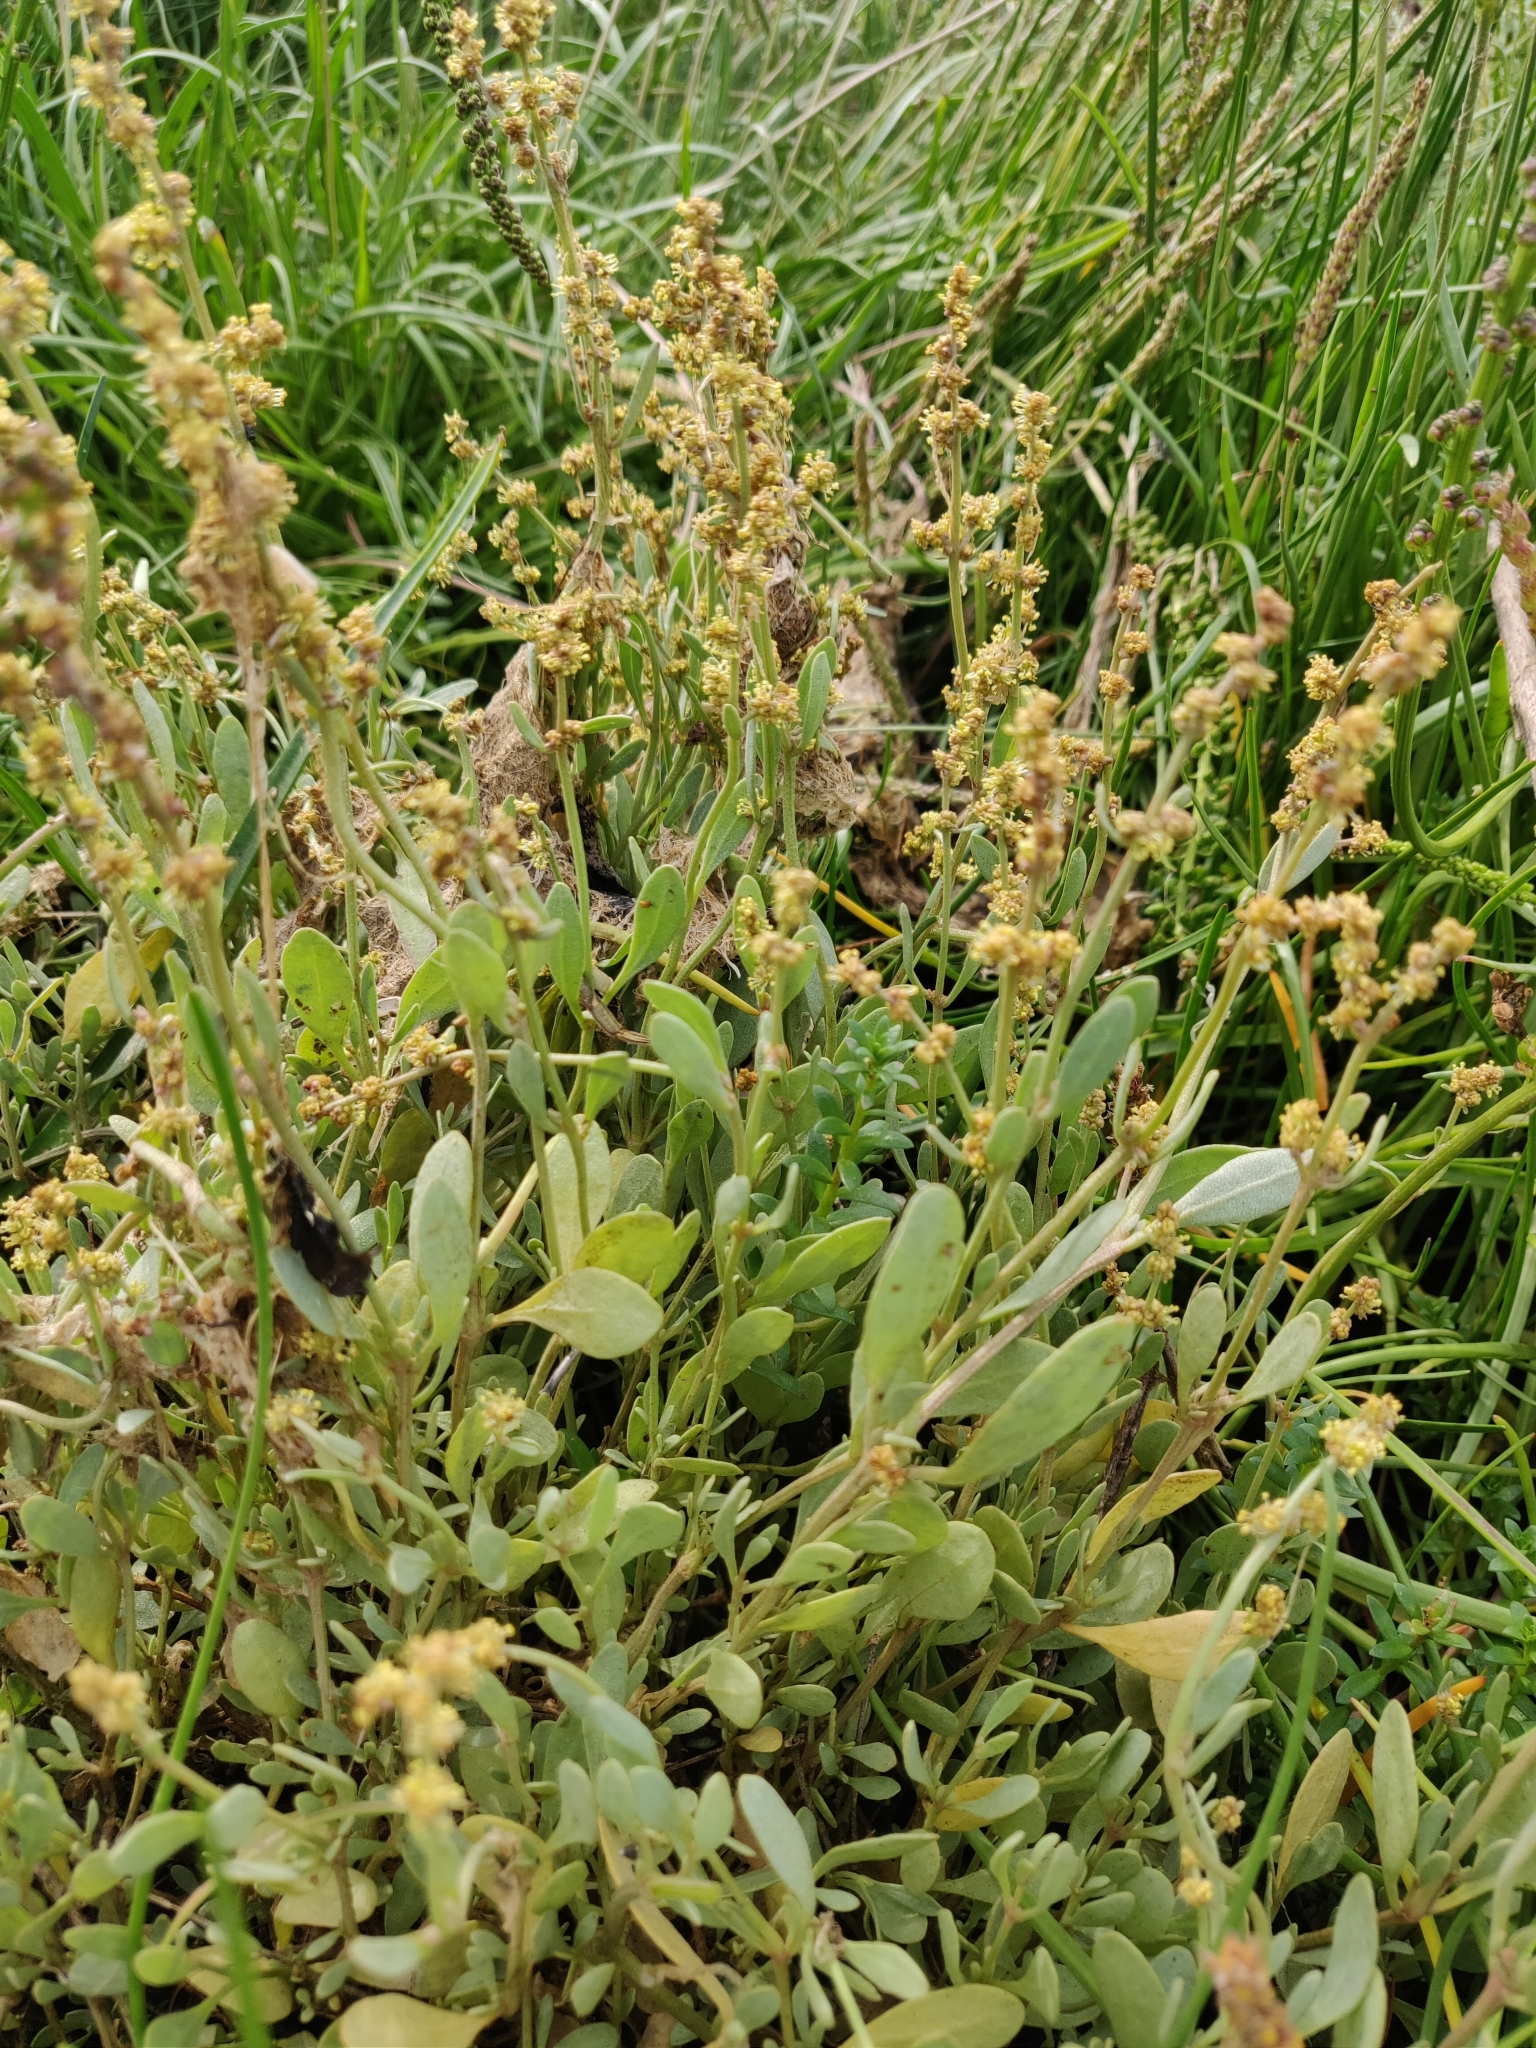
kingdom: Plantae
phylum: Tracheophyta
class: Magnoliopsida
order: Caryophyllales
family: Amaranthaceae
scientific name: Amaranthaceae
